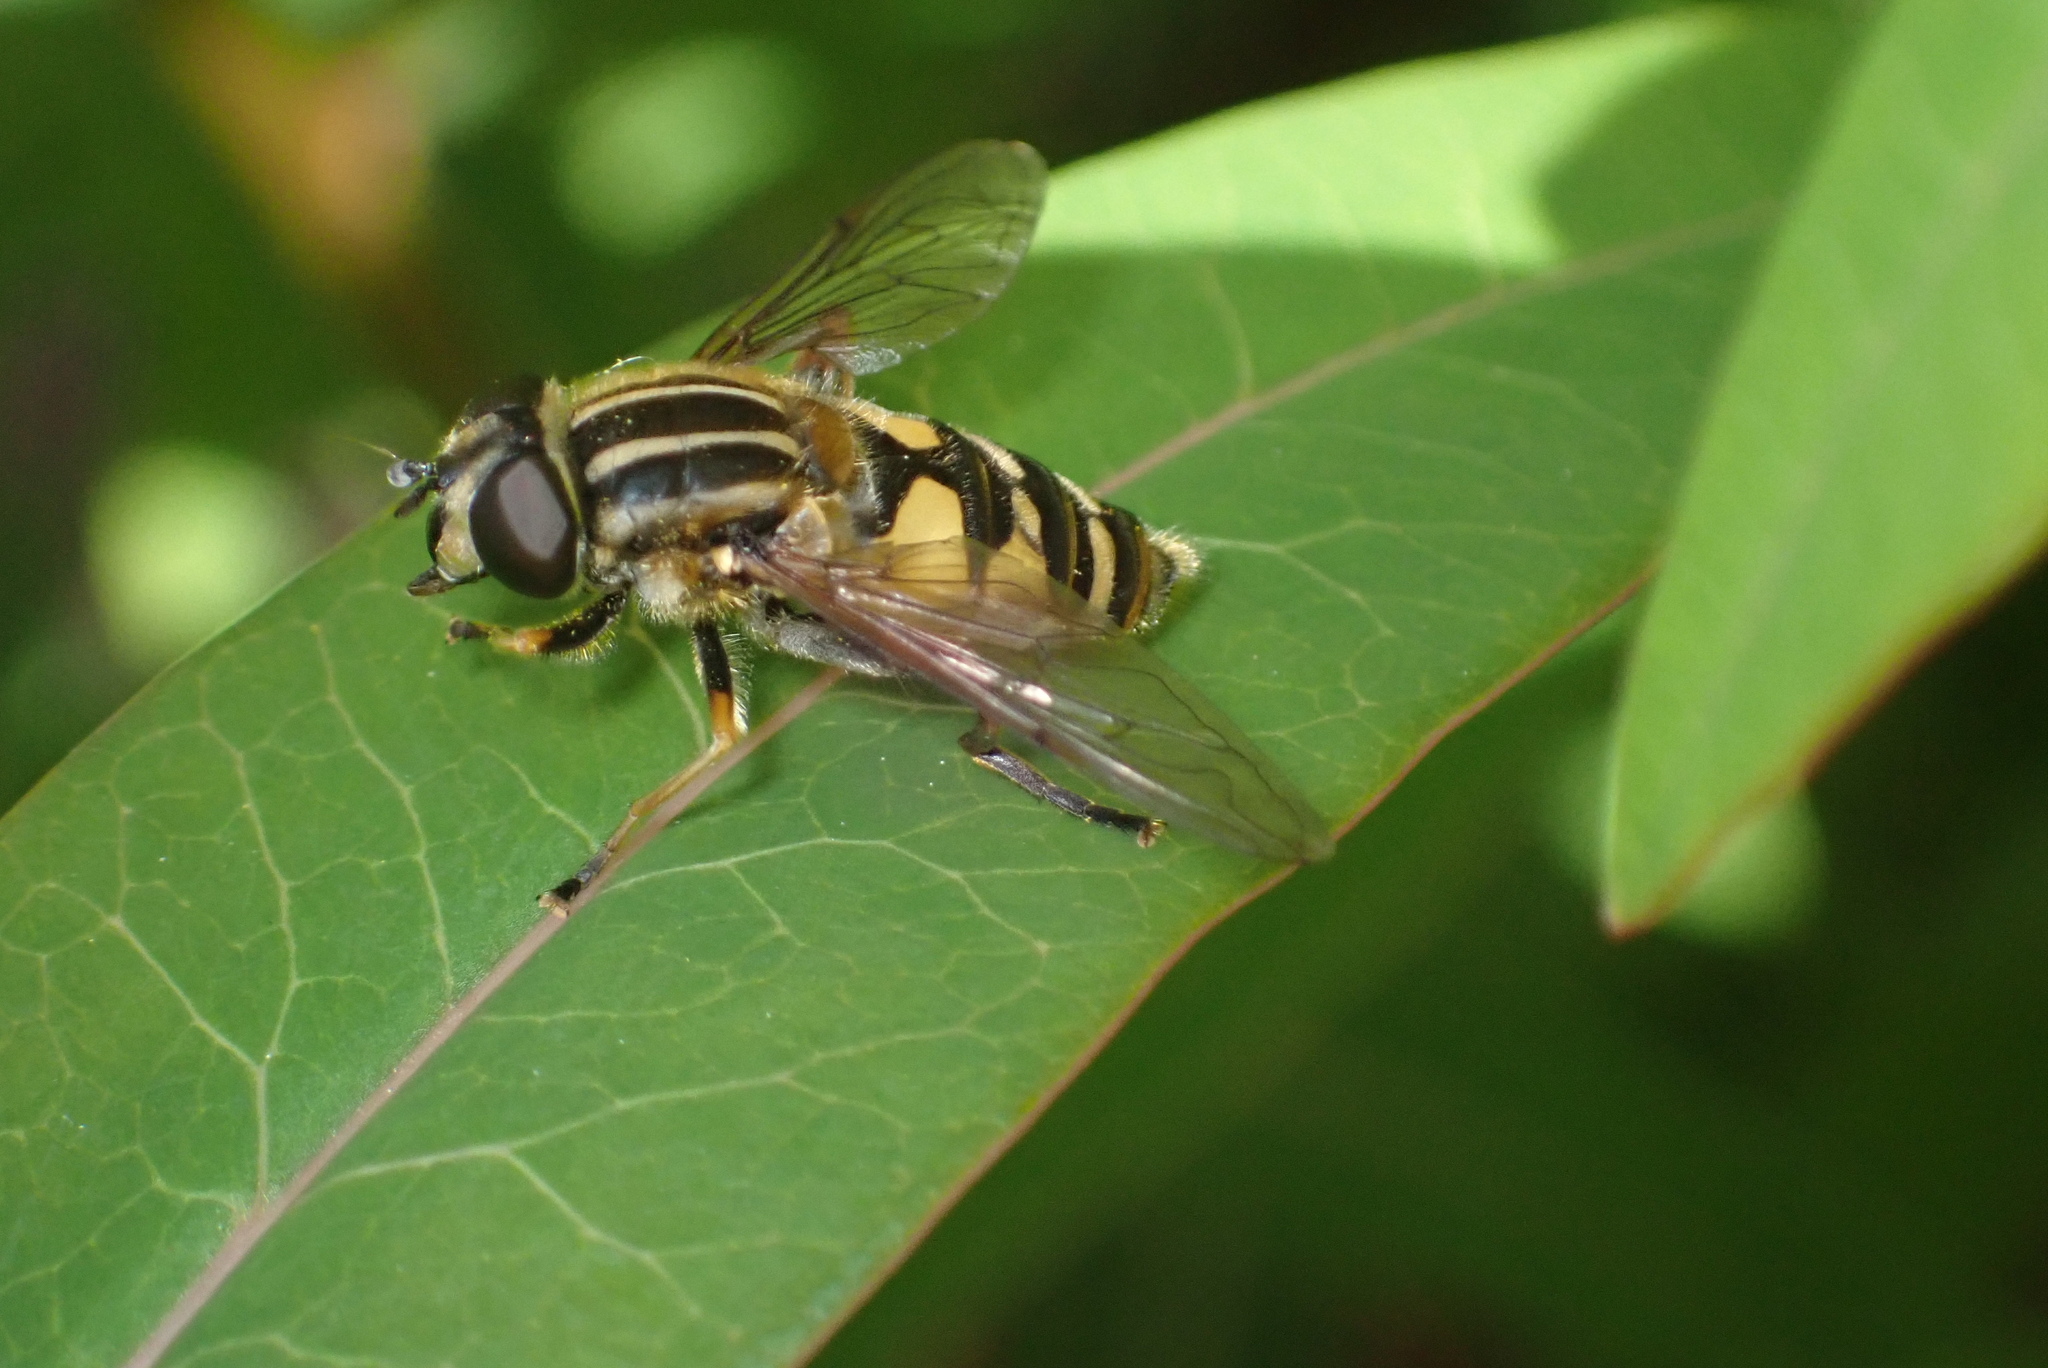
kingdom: Animalia
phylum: Arthropoda
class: Insecta
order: Diptera
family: Syrphidae
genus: Helophilus
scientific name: Helophilus pendulus
